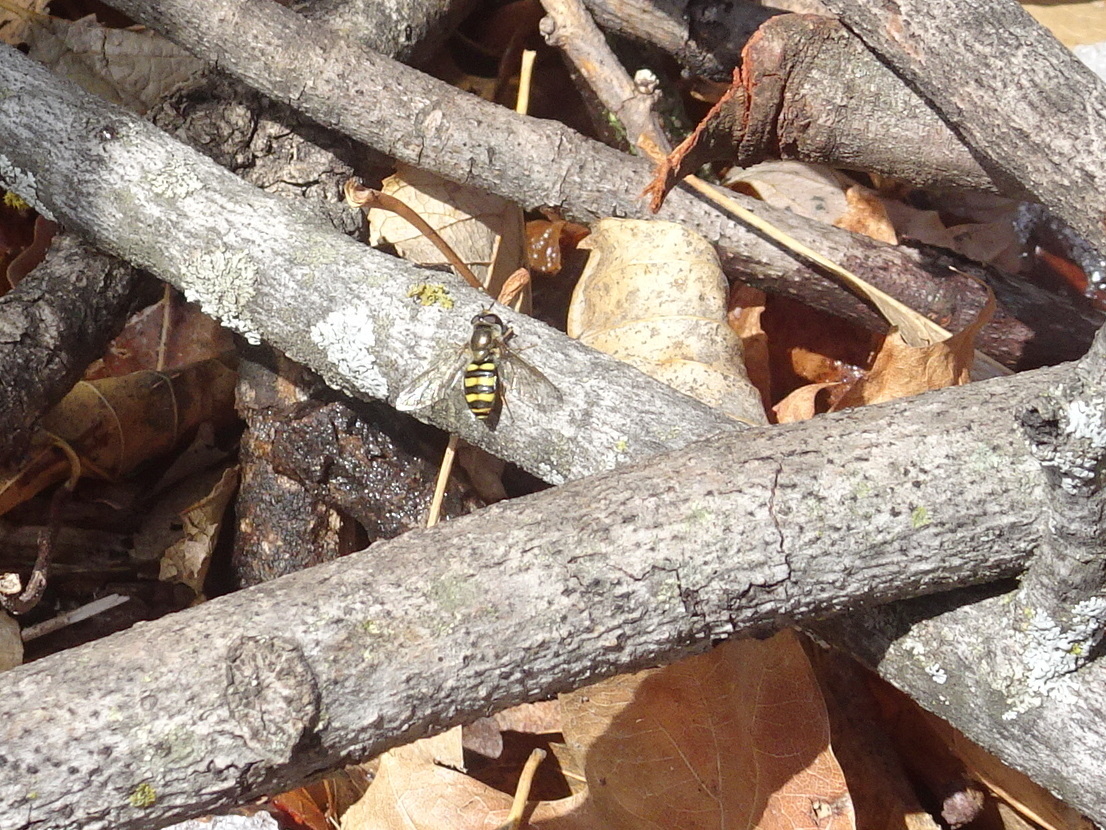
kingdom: Animalia
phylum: Arthropoda
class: Insecta
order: Diptera
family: Syrphidae
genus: Eupeodes
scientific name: Eupeodes
